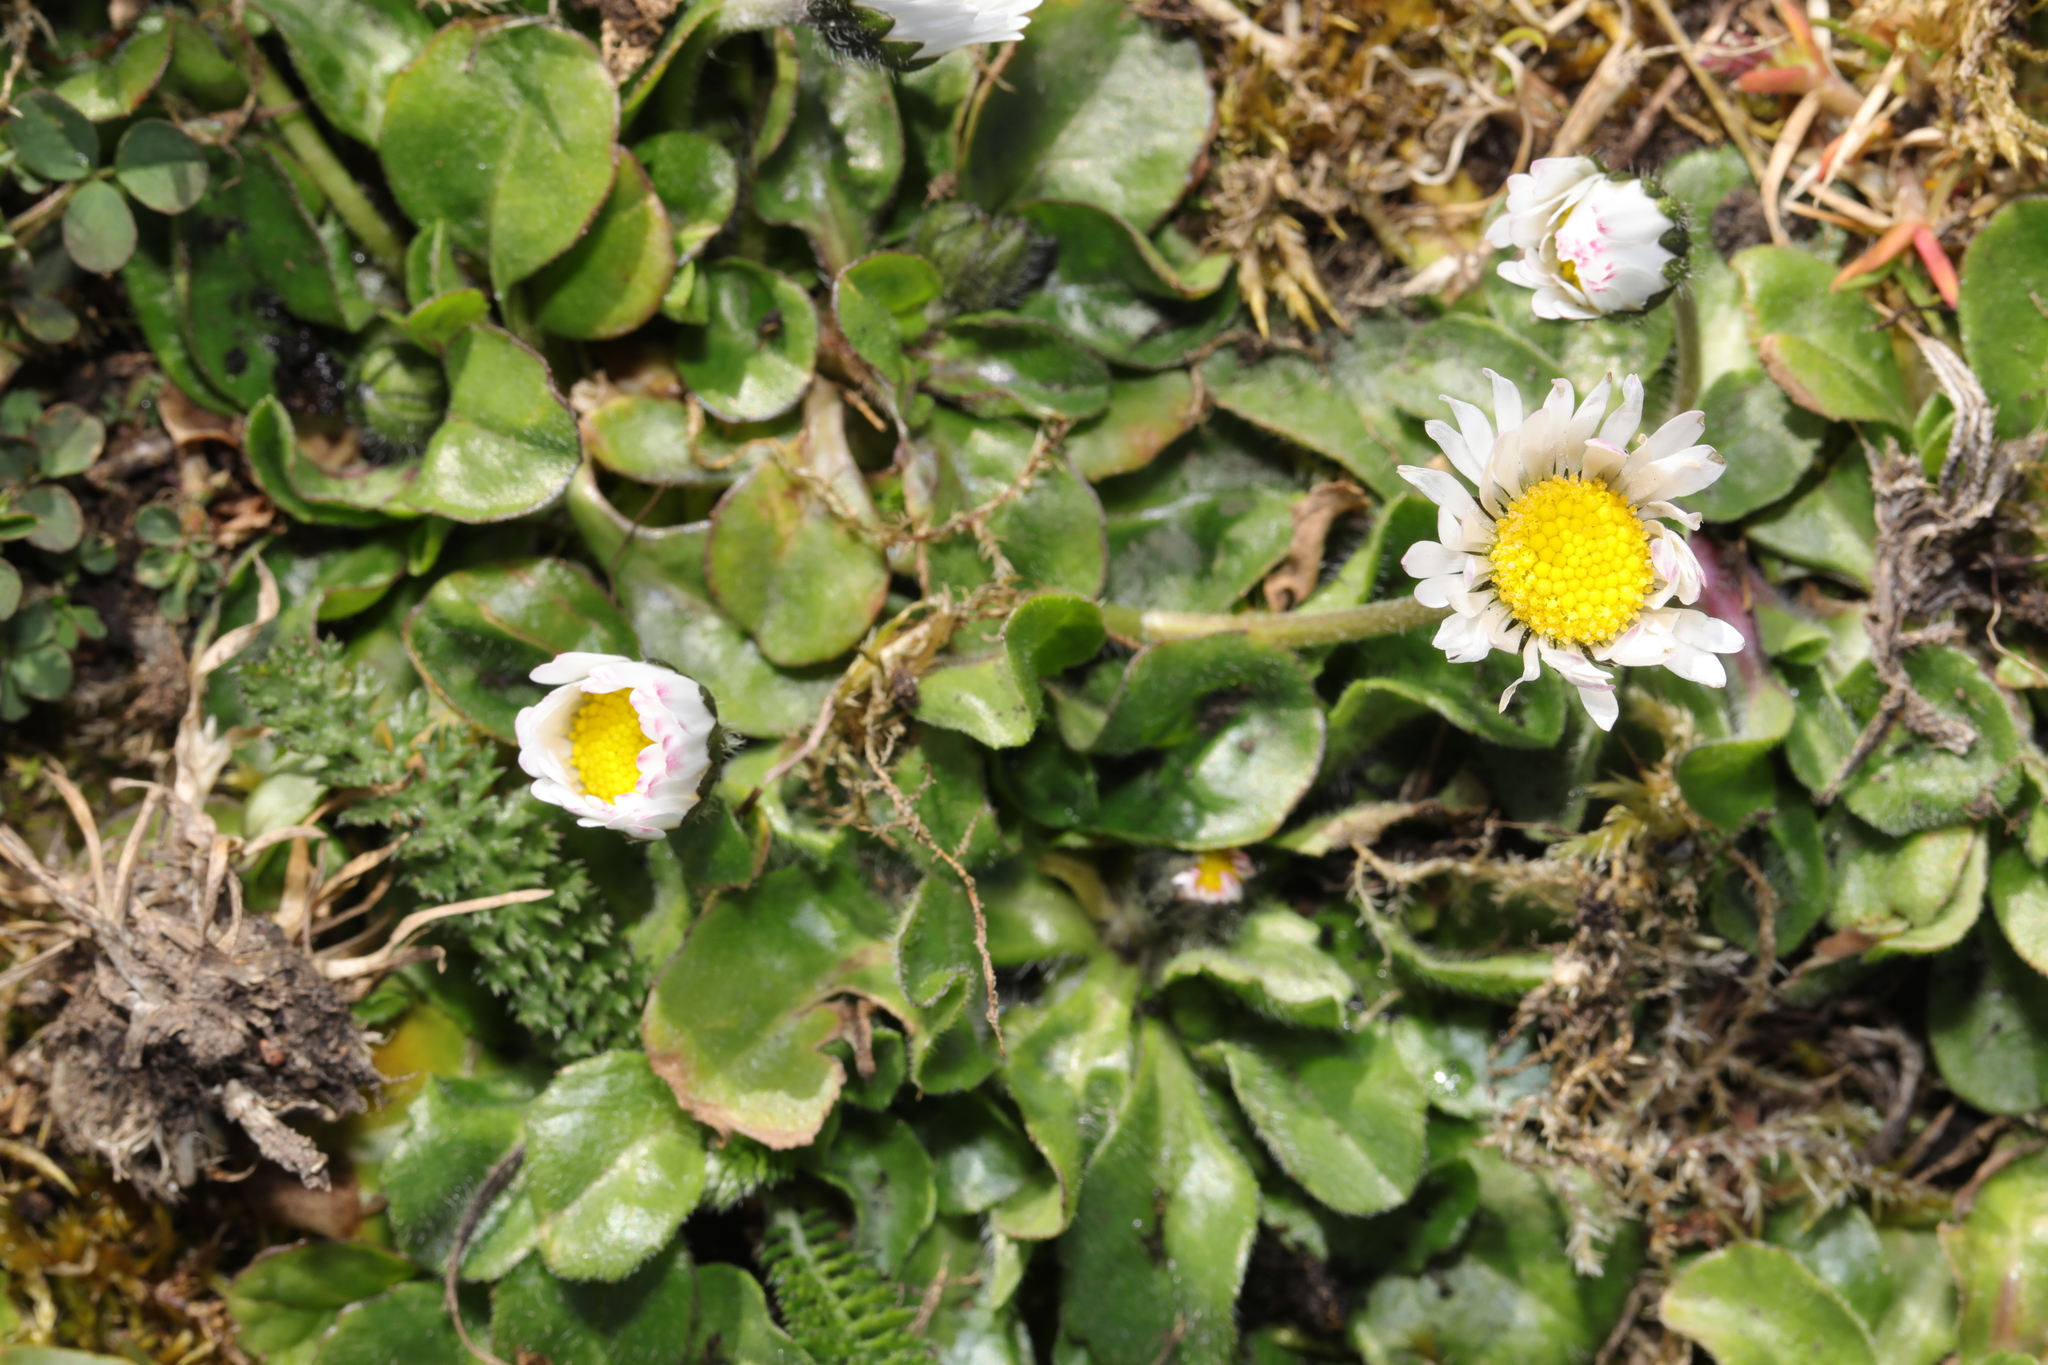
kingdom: Plantae
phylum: Tracheophyta
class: Magnoliopsida
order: Asterales
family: Asteraceae
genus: Bellis
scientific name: Bellis perennis
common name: Lawndaisy
